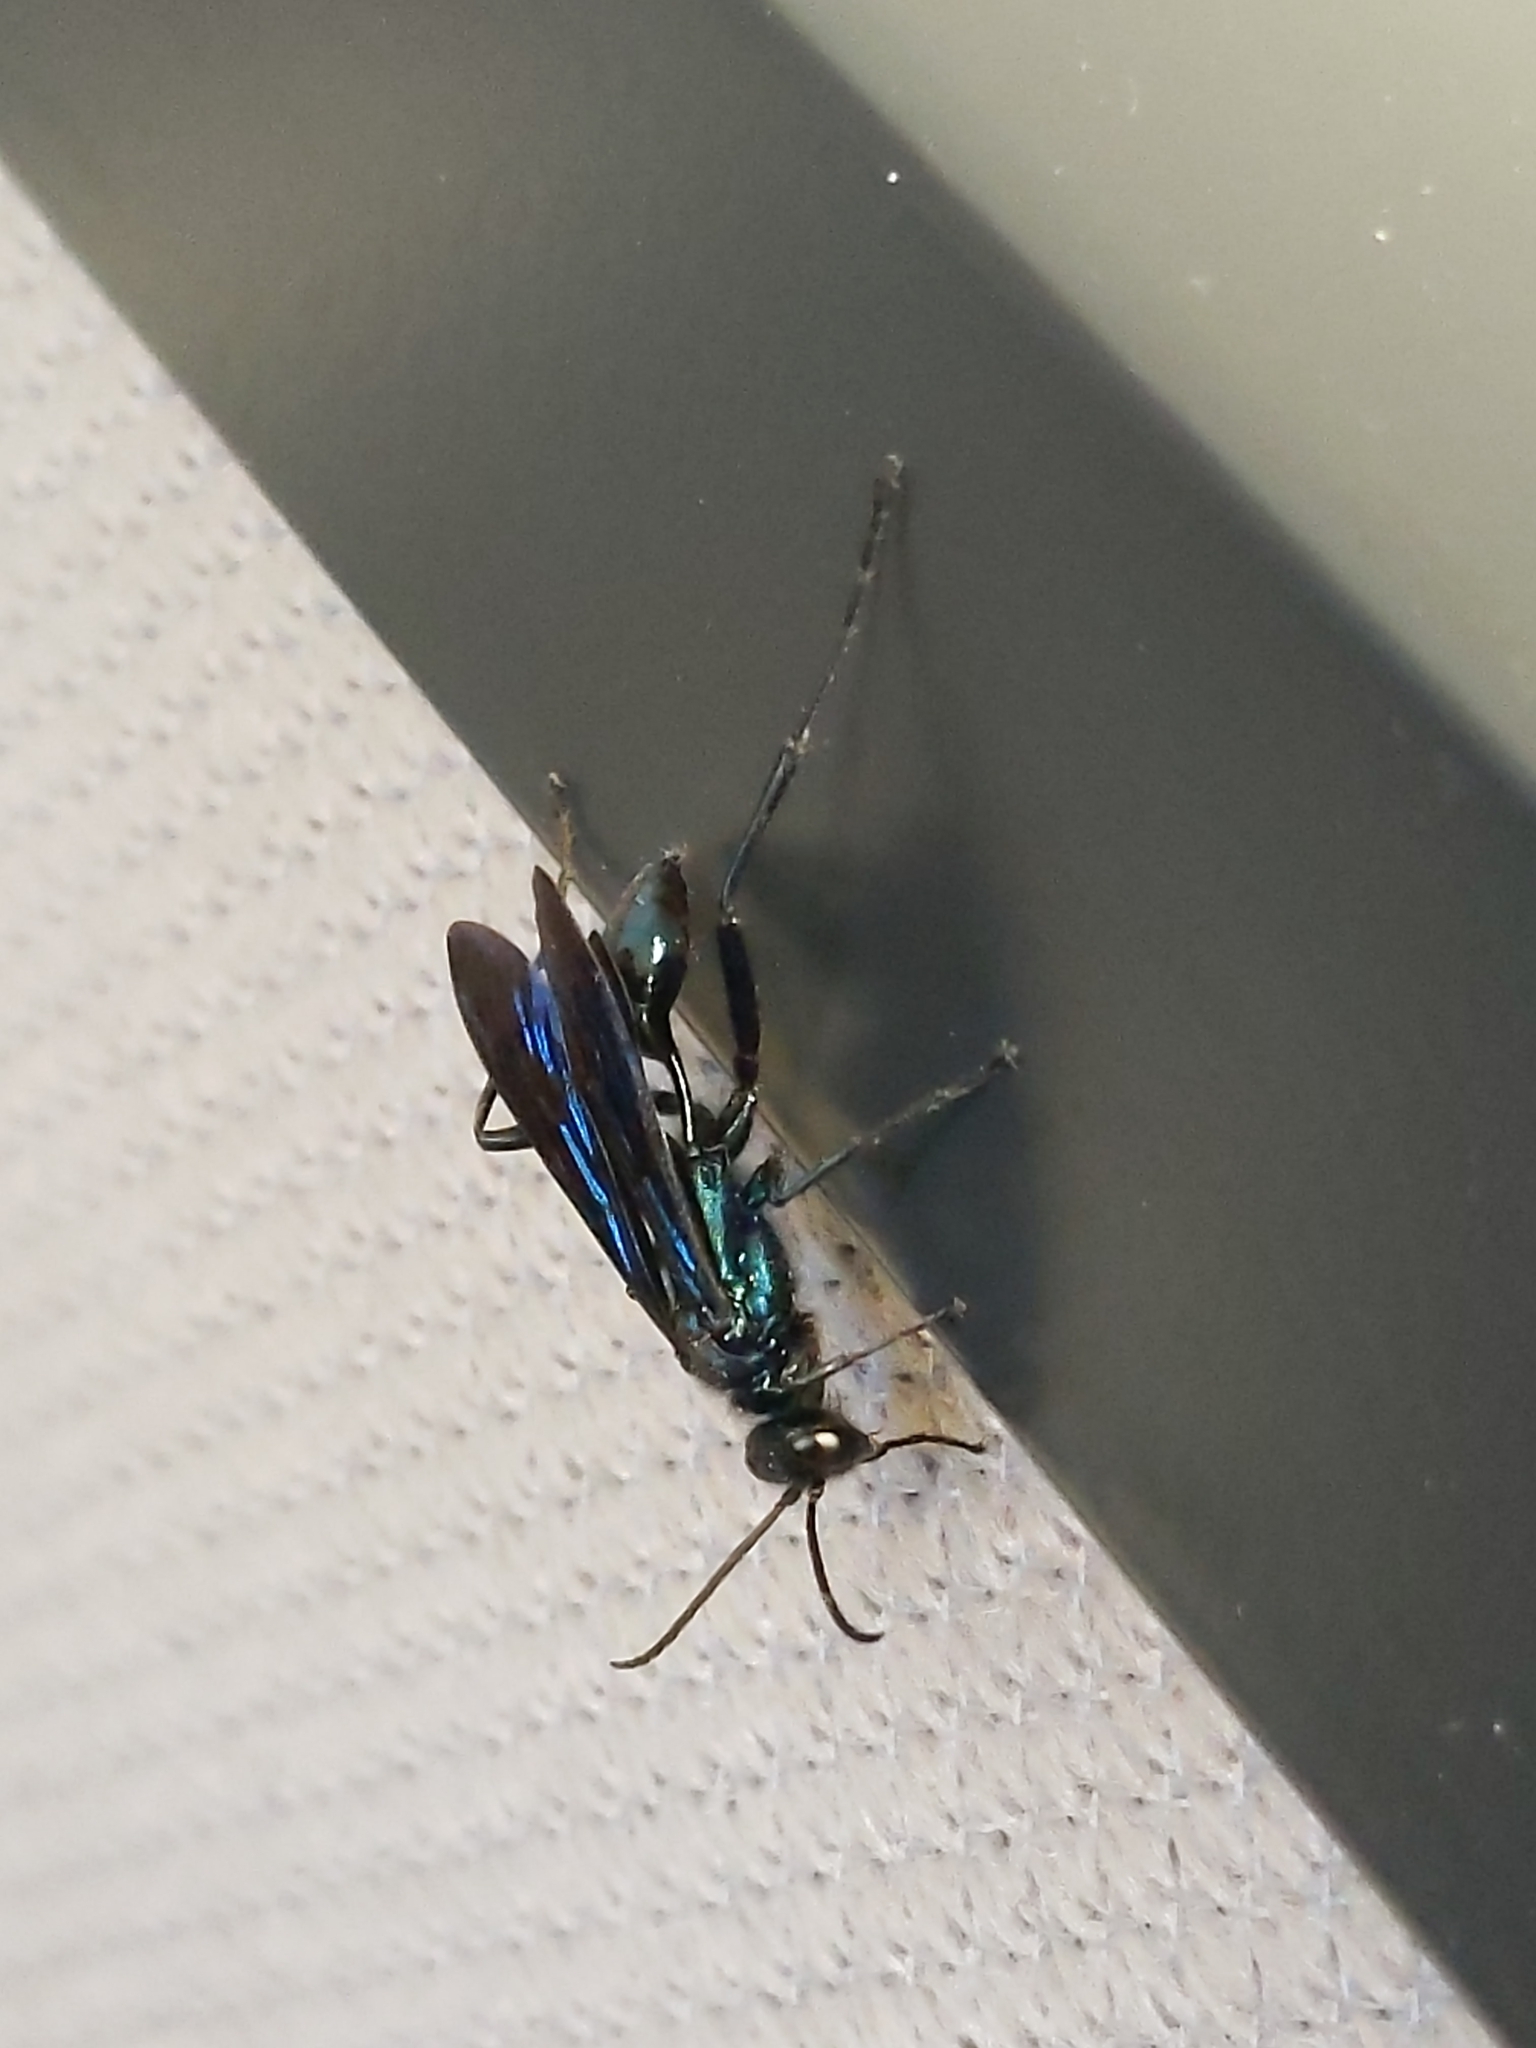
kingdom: Animalia
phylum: Arthropoda
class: Insecta
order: Hymenoptera
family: Sphecidae
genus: Chalybion
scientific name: Chalybion californicum
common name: Mud dauber
